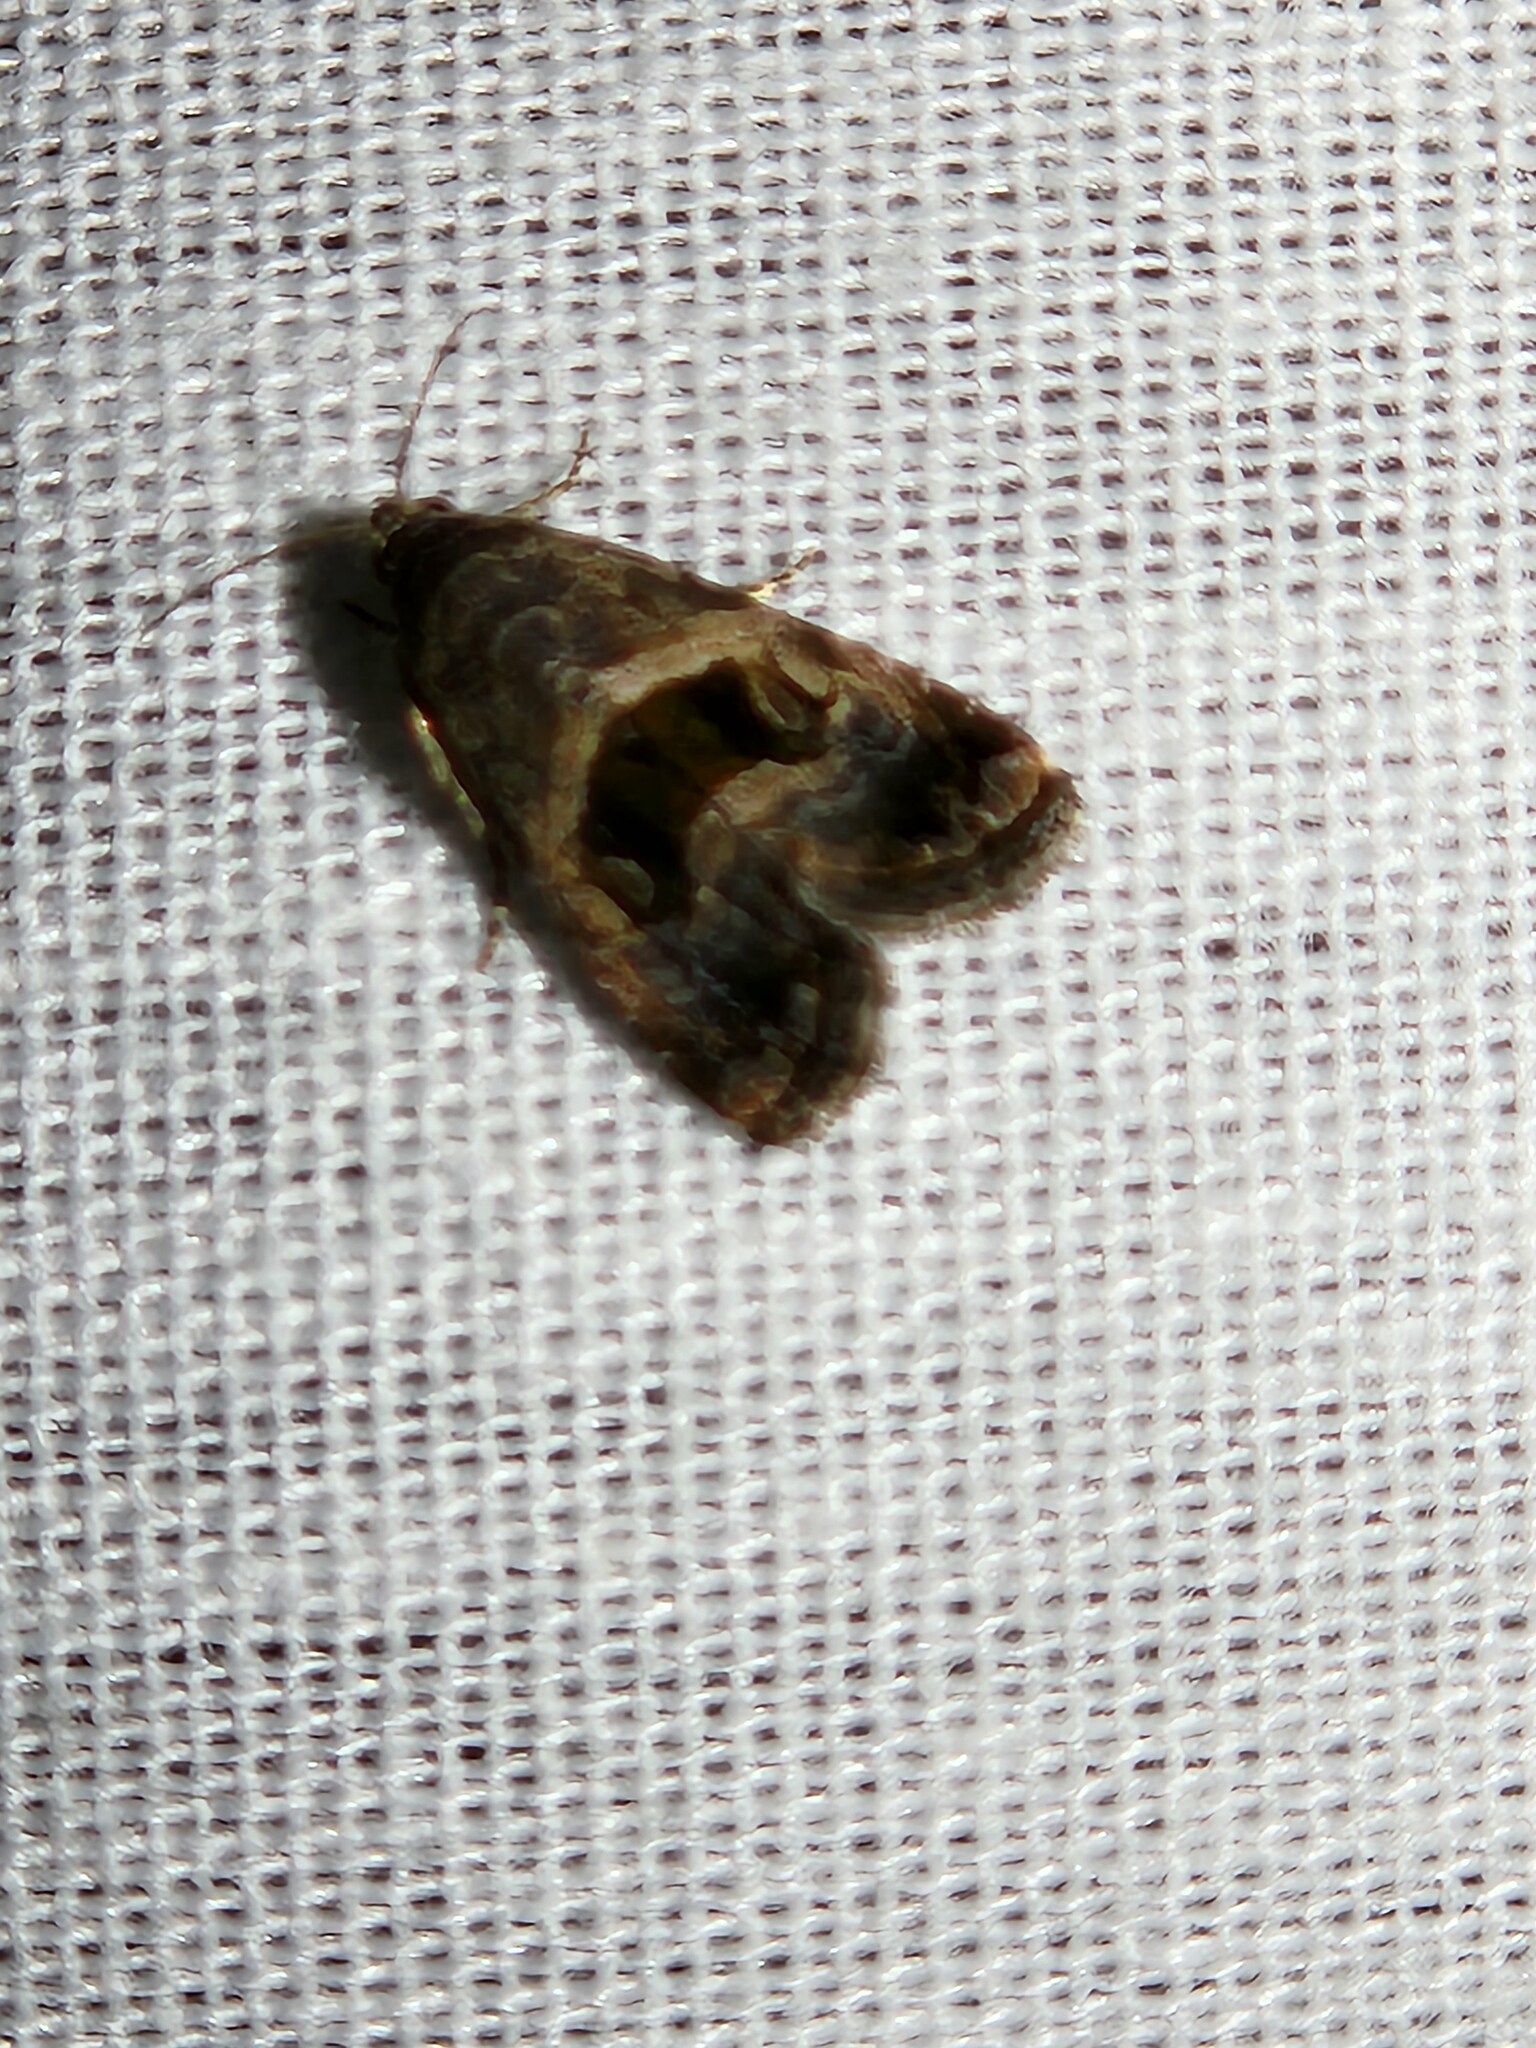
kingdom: Animalia
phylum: Arthropoda
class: Insecta
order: Lepidoptera
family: Noctuidae
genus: Tripudia
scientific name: Tripudia quadrifera
